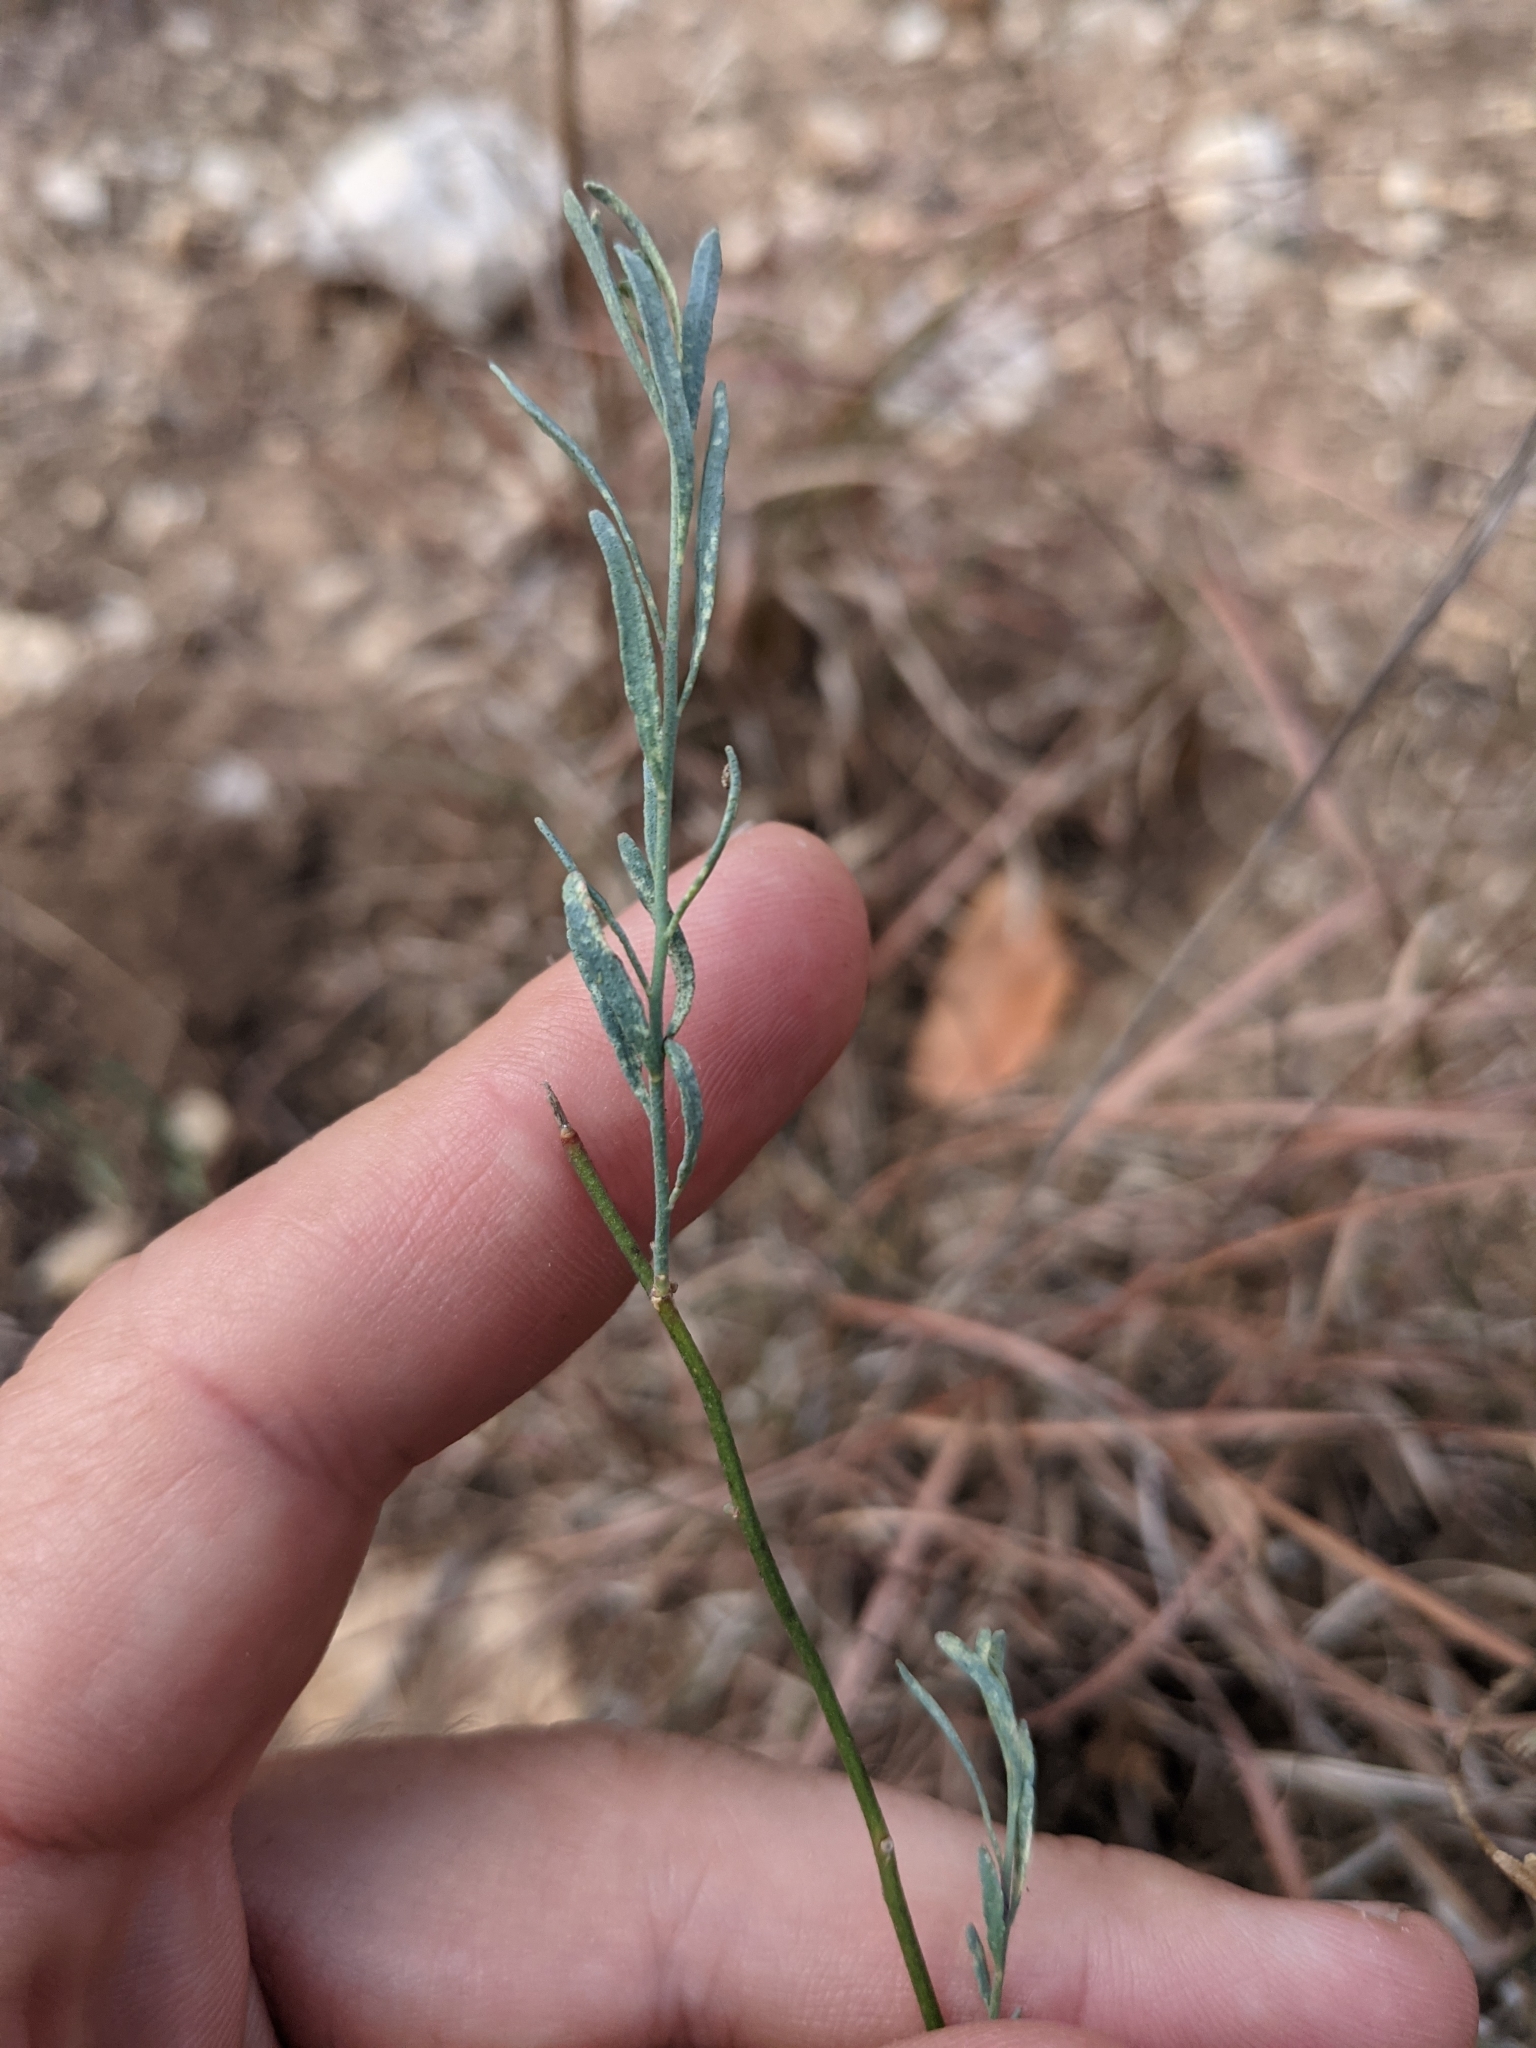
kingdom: Plantae
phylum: Tracheophyta
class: Magnoliopsida
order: Sapindales
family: Rutaceae
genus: Thamnosma
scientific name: Thamnosma texana
